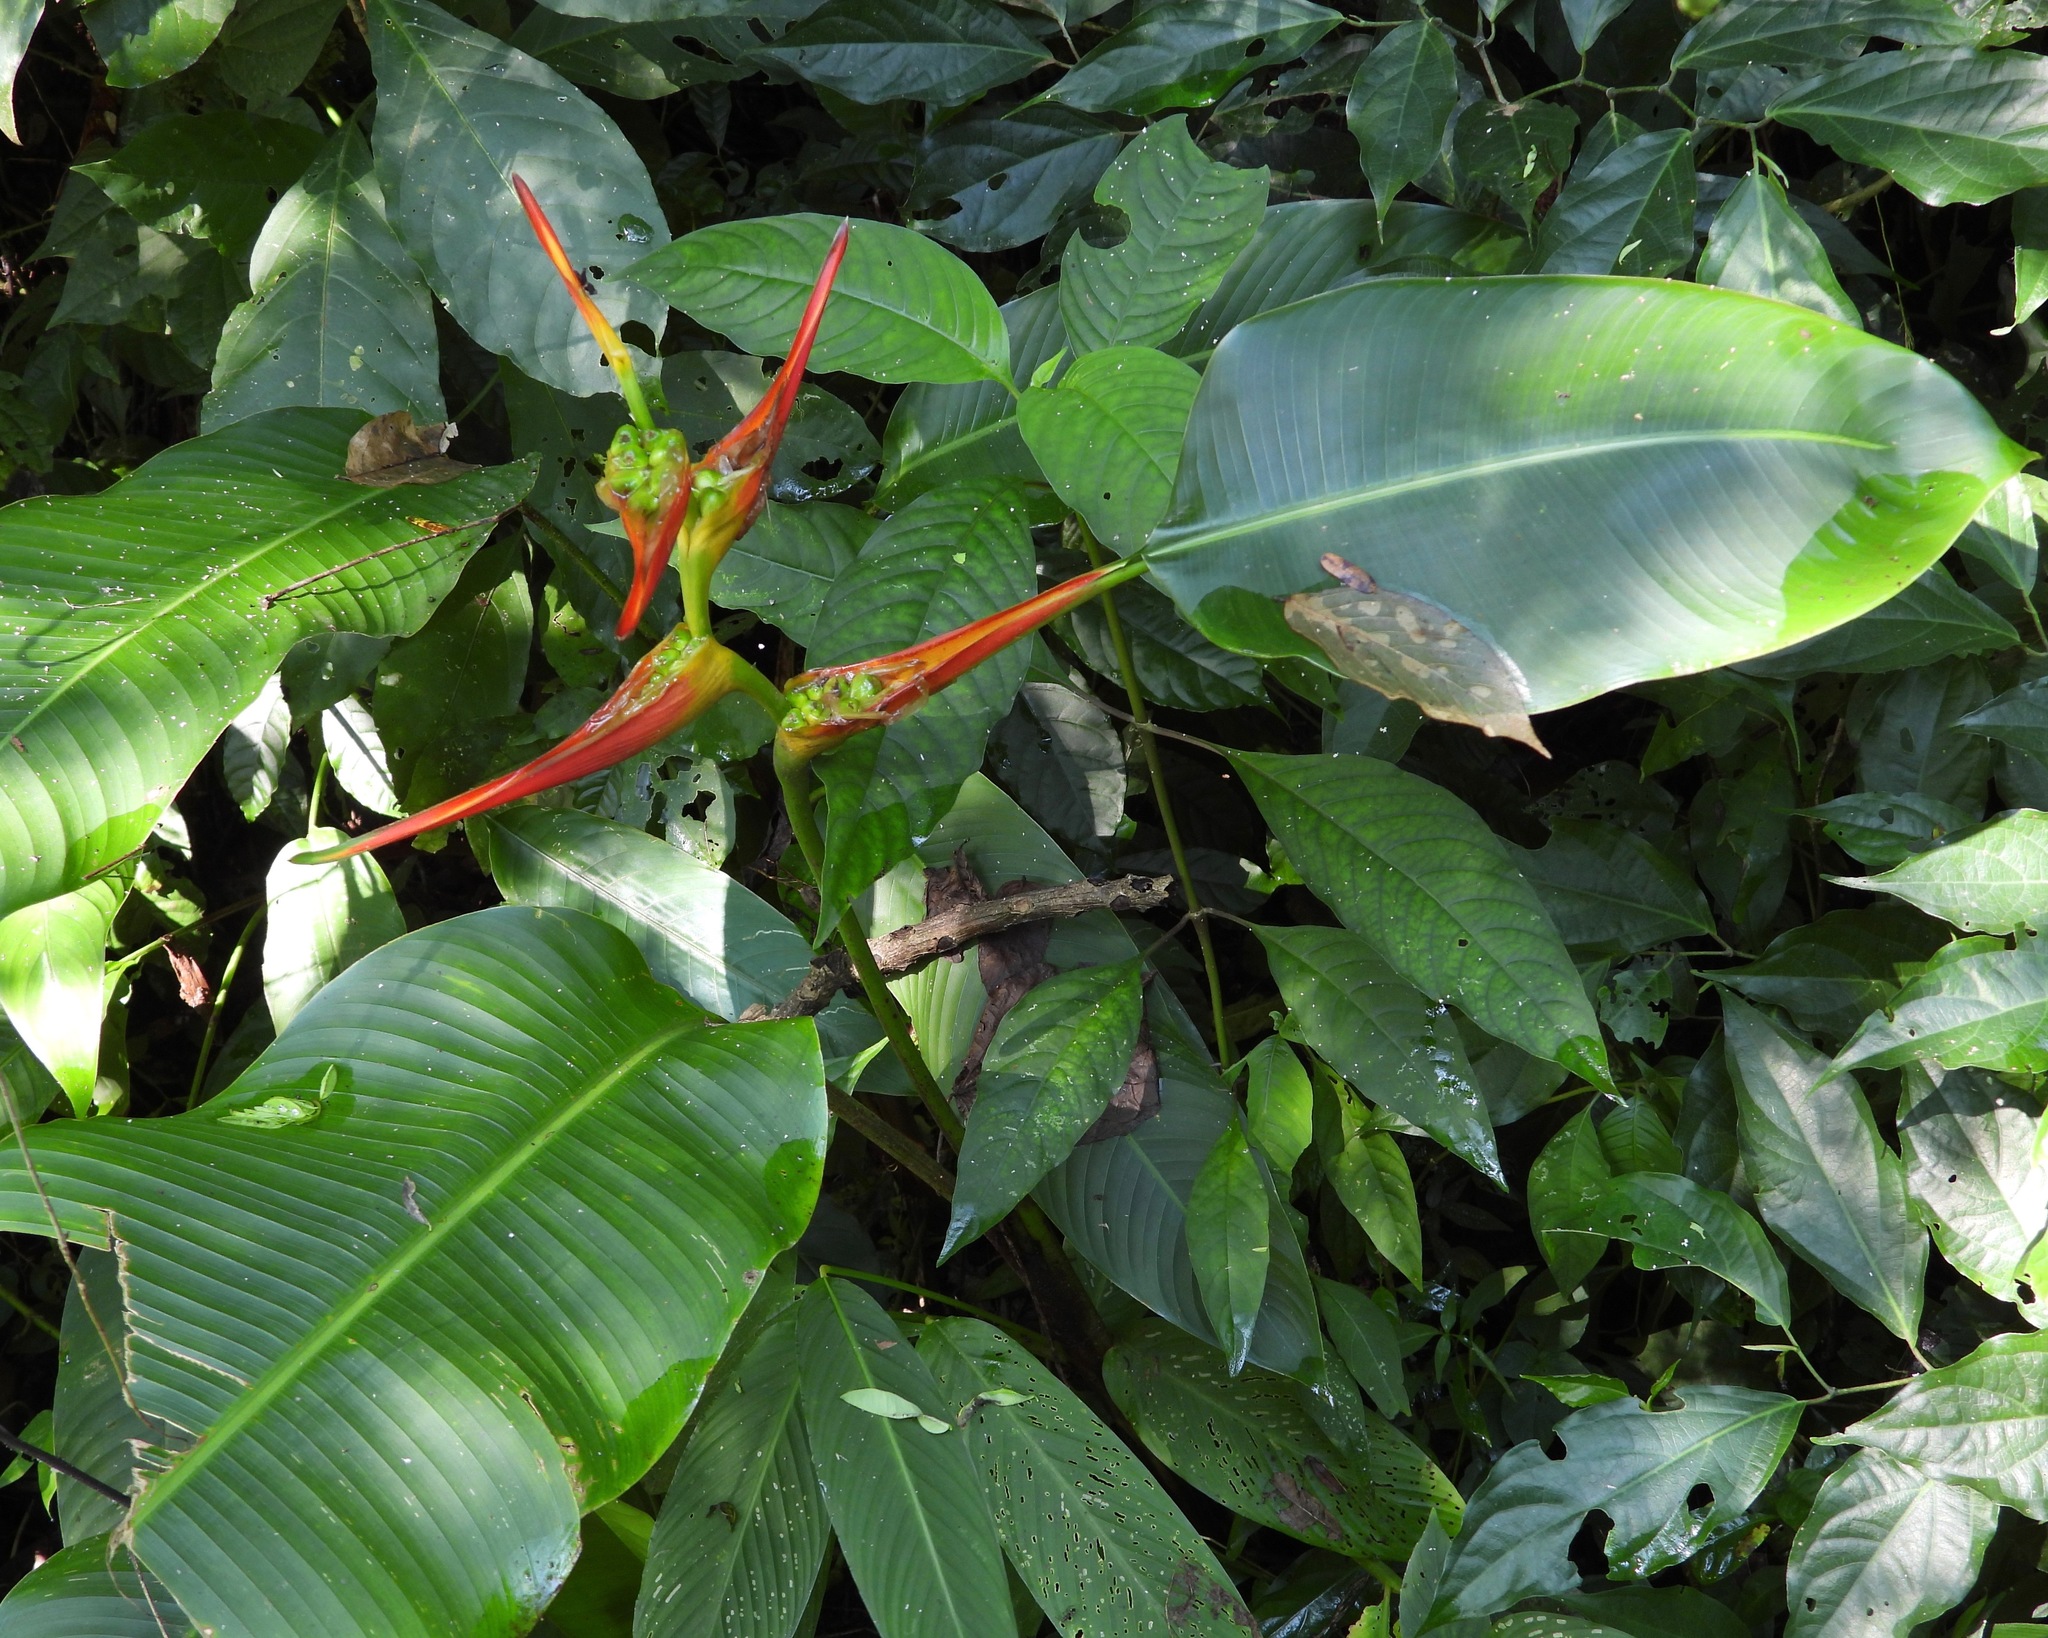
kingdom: Plantae
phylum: Tracheophyta
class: Liliopsida
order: Zingiberales
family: Heliconiaceae
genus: Heliconia
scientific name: Heliconia latispatha
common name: Expanded lobsterclaw
